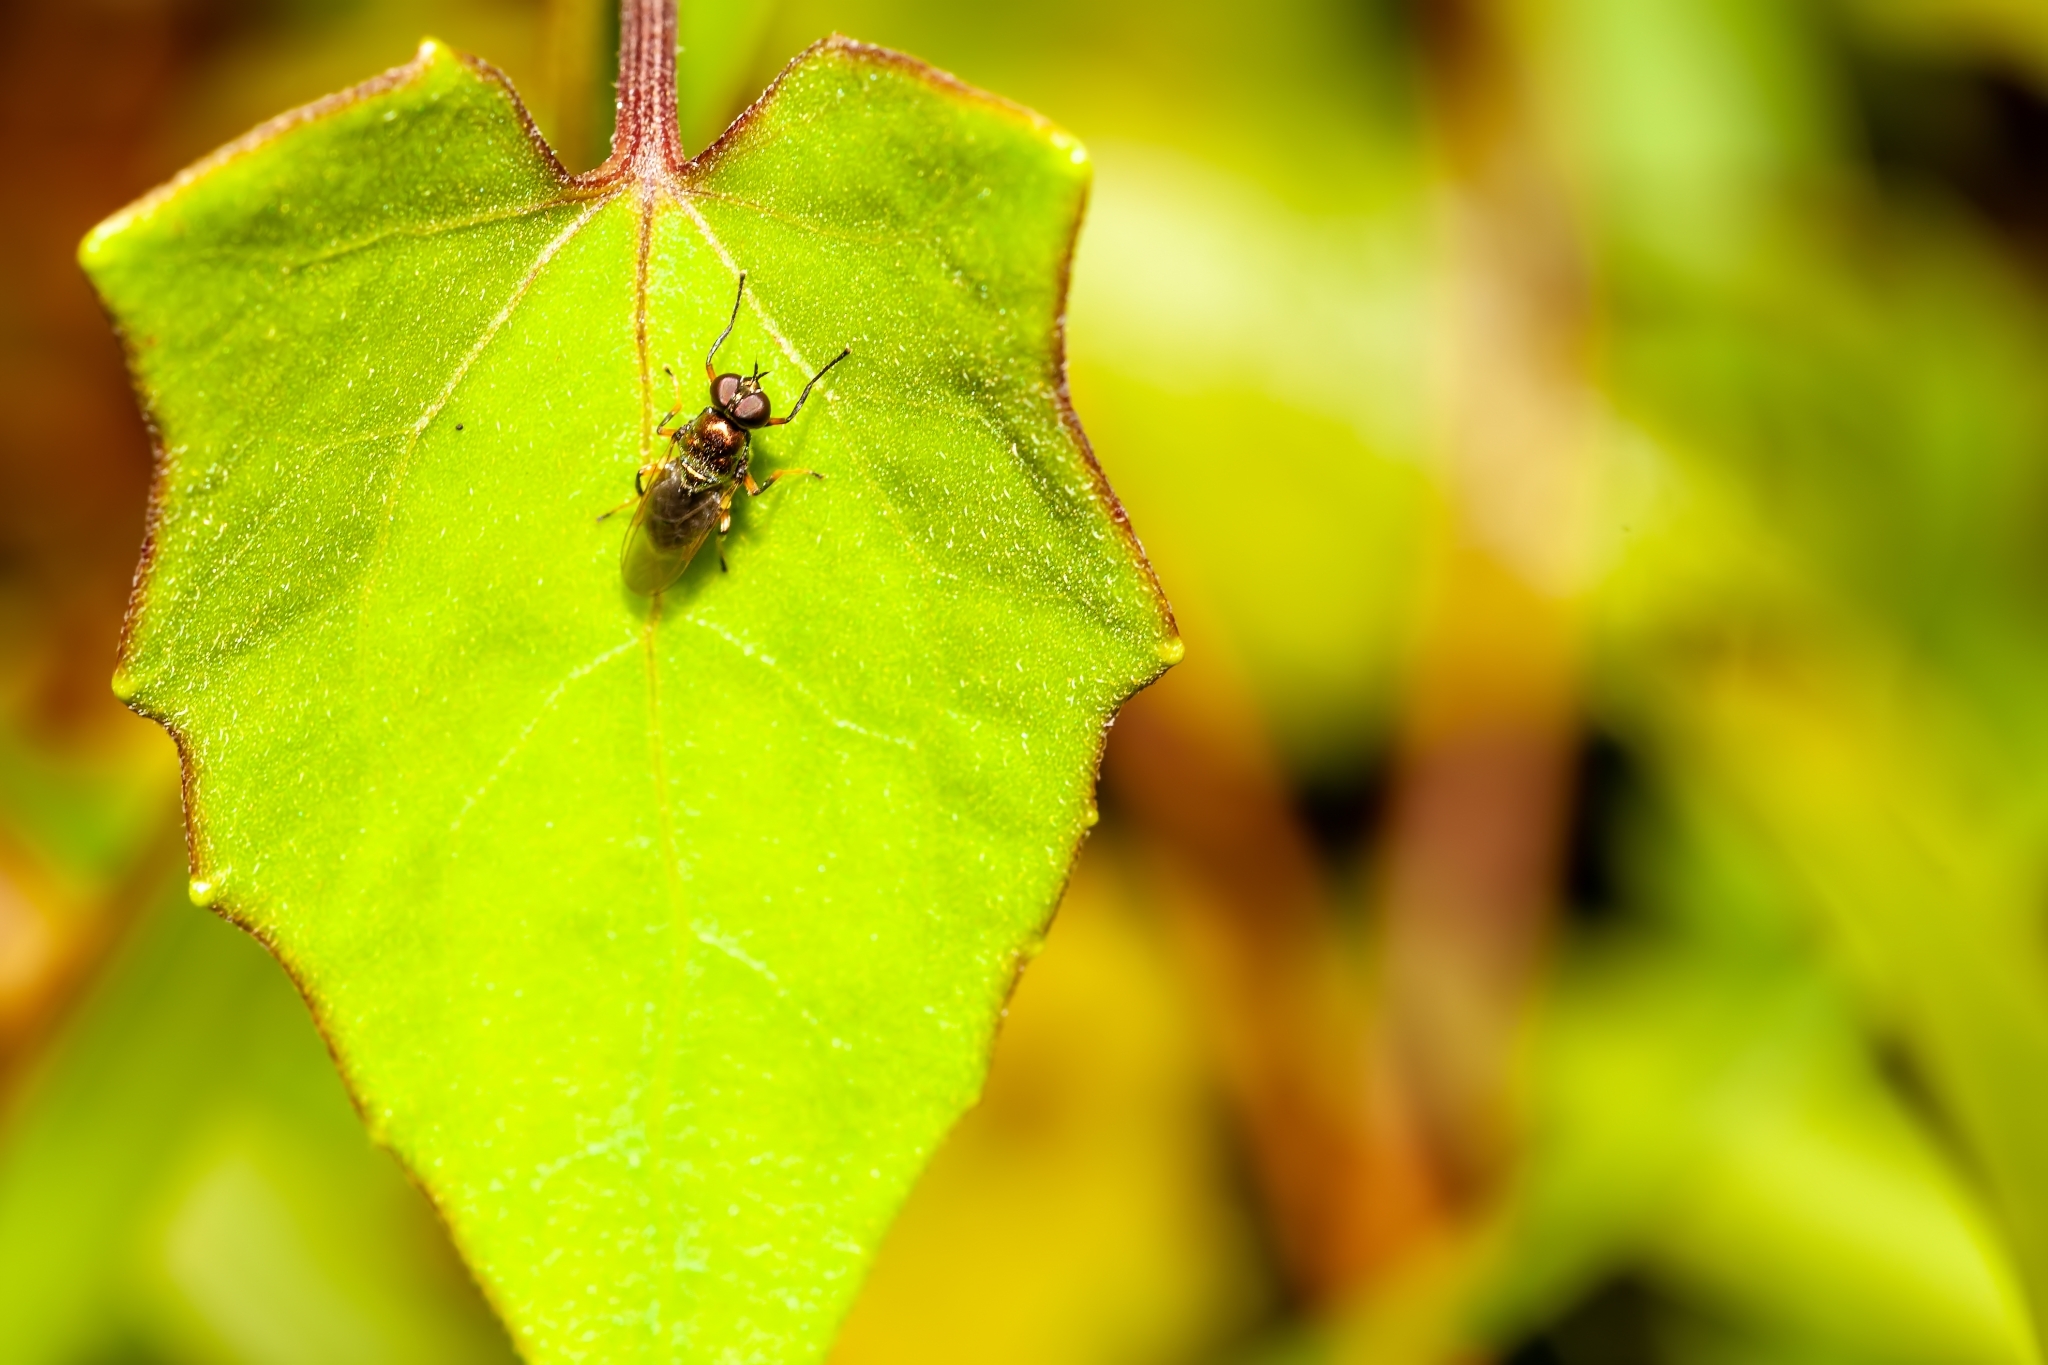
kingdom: Animalia
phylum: Arthropoda
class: Insecta
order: Diptera
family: Stratiomyidae
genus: Nothomyia
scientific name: Nothomyia calopus
